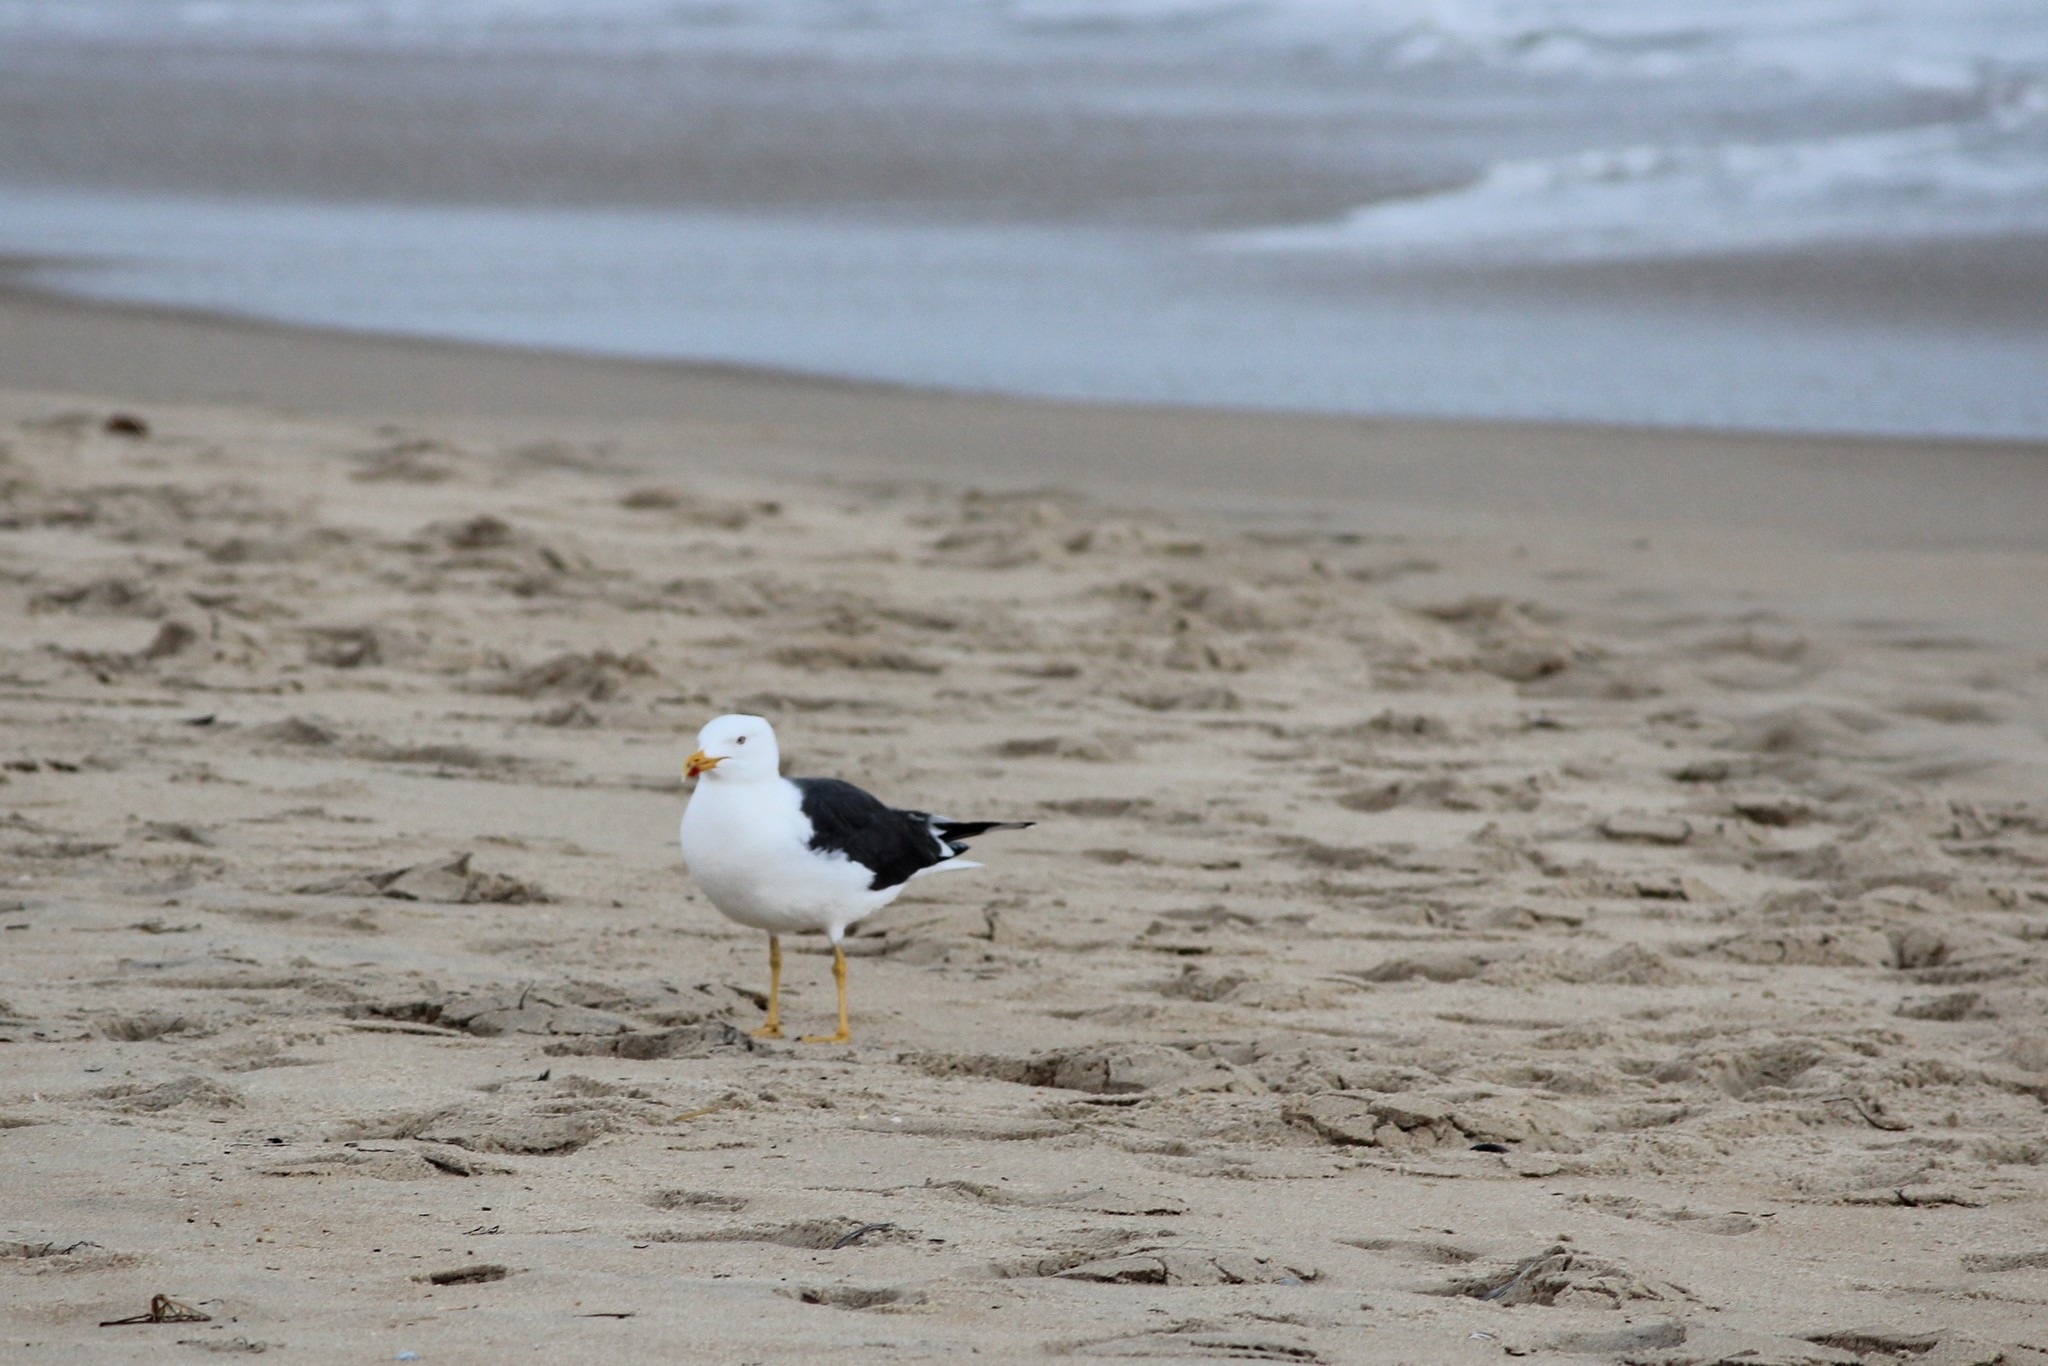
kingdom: Animalia
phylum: Chordata
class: Aves
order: Charadriiformes
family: Laridae
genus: Larus
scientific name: Larus fuscus
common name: Lesser black-backed gull
